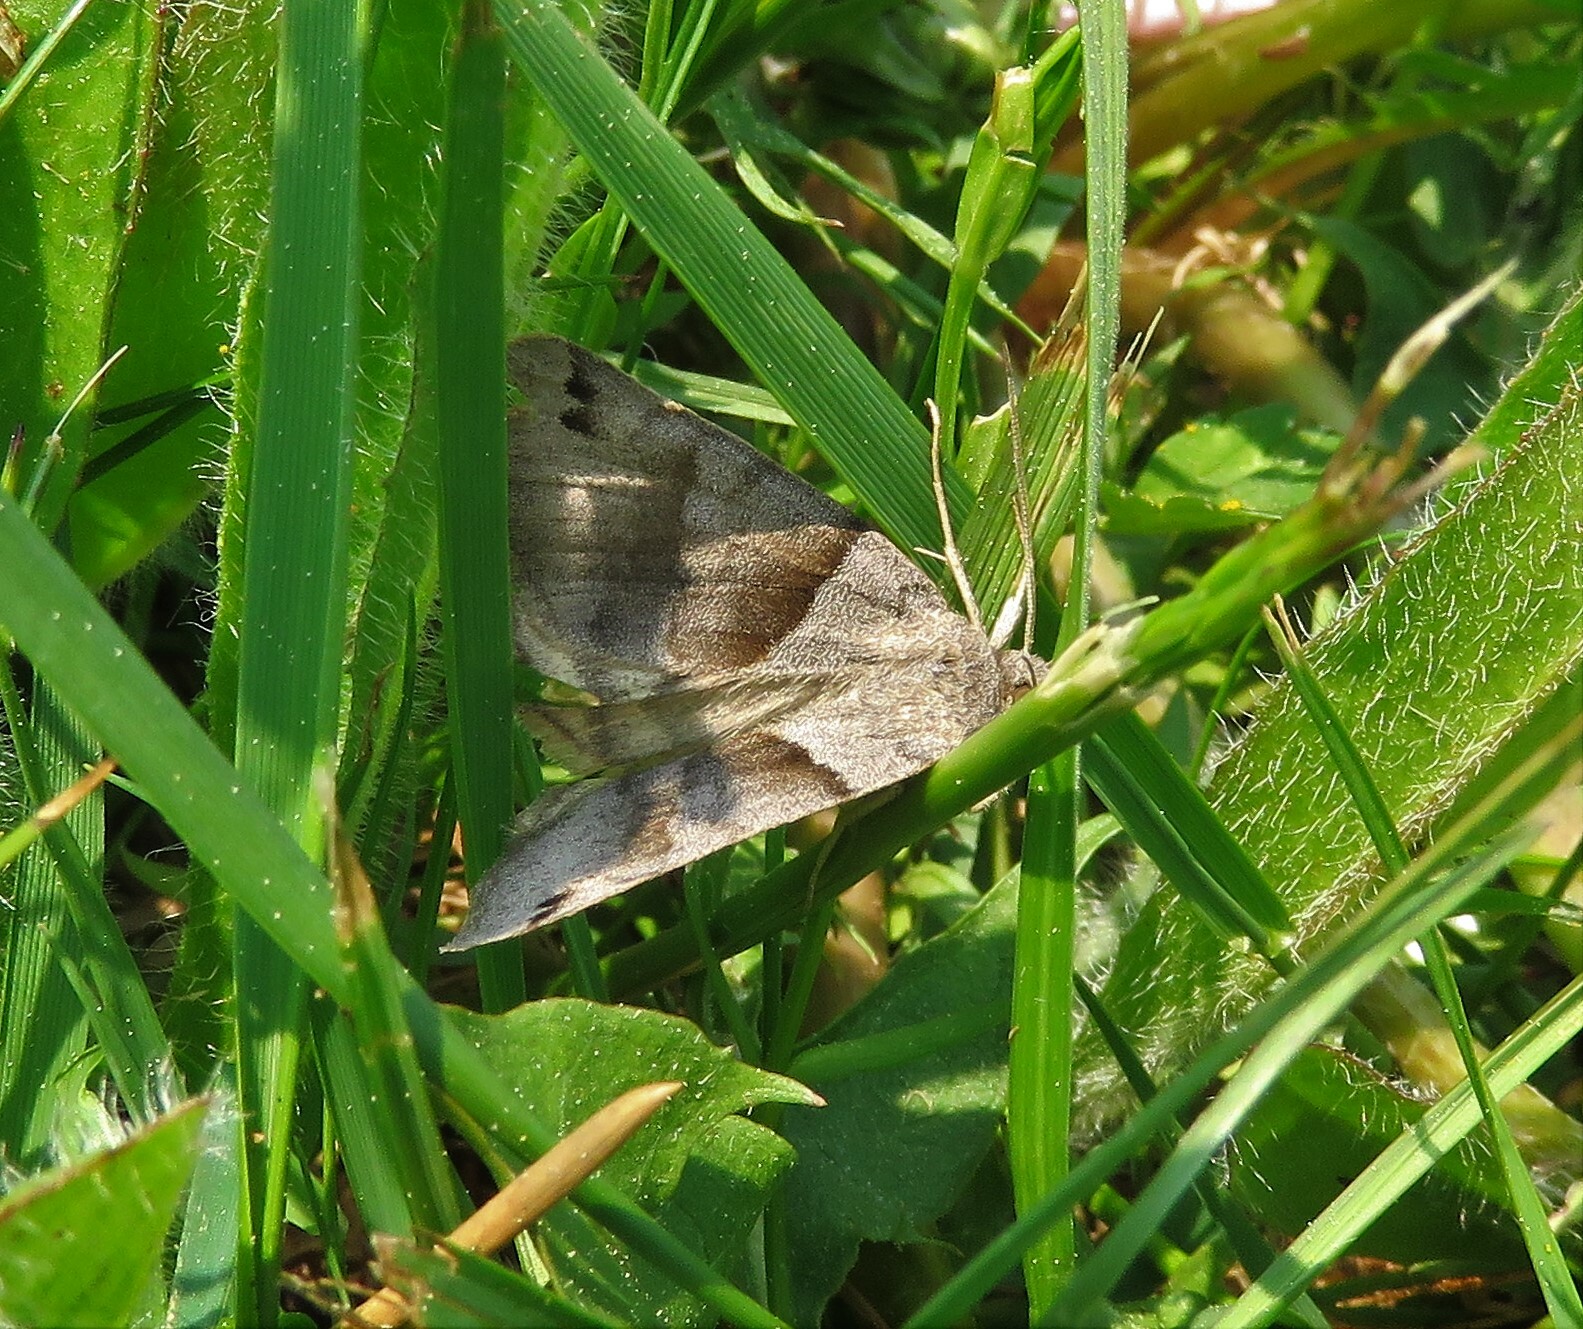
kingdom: Animalia
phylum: Arthropoda
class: Insecta
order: Lepidoptera
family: Erebidae
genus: Caenurgina
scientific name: Caenurgina crassiuscula
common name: Double-barred
